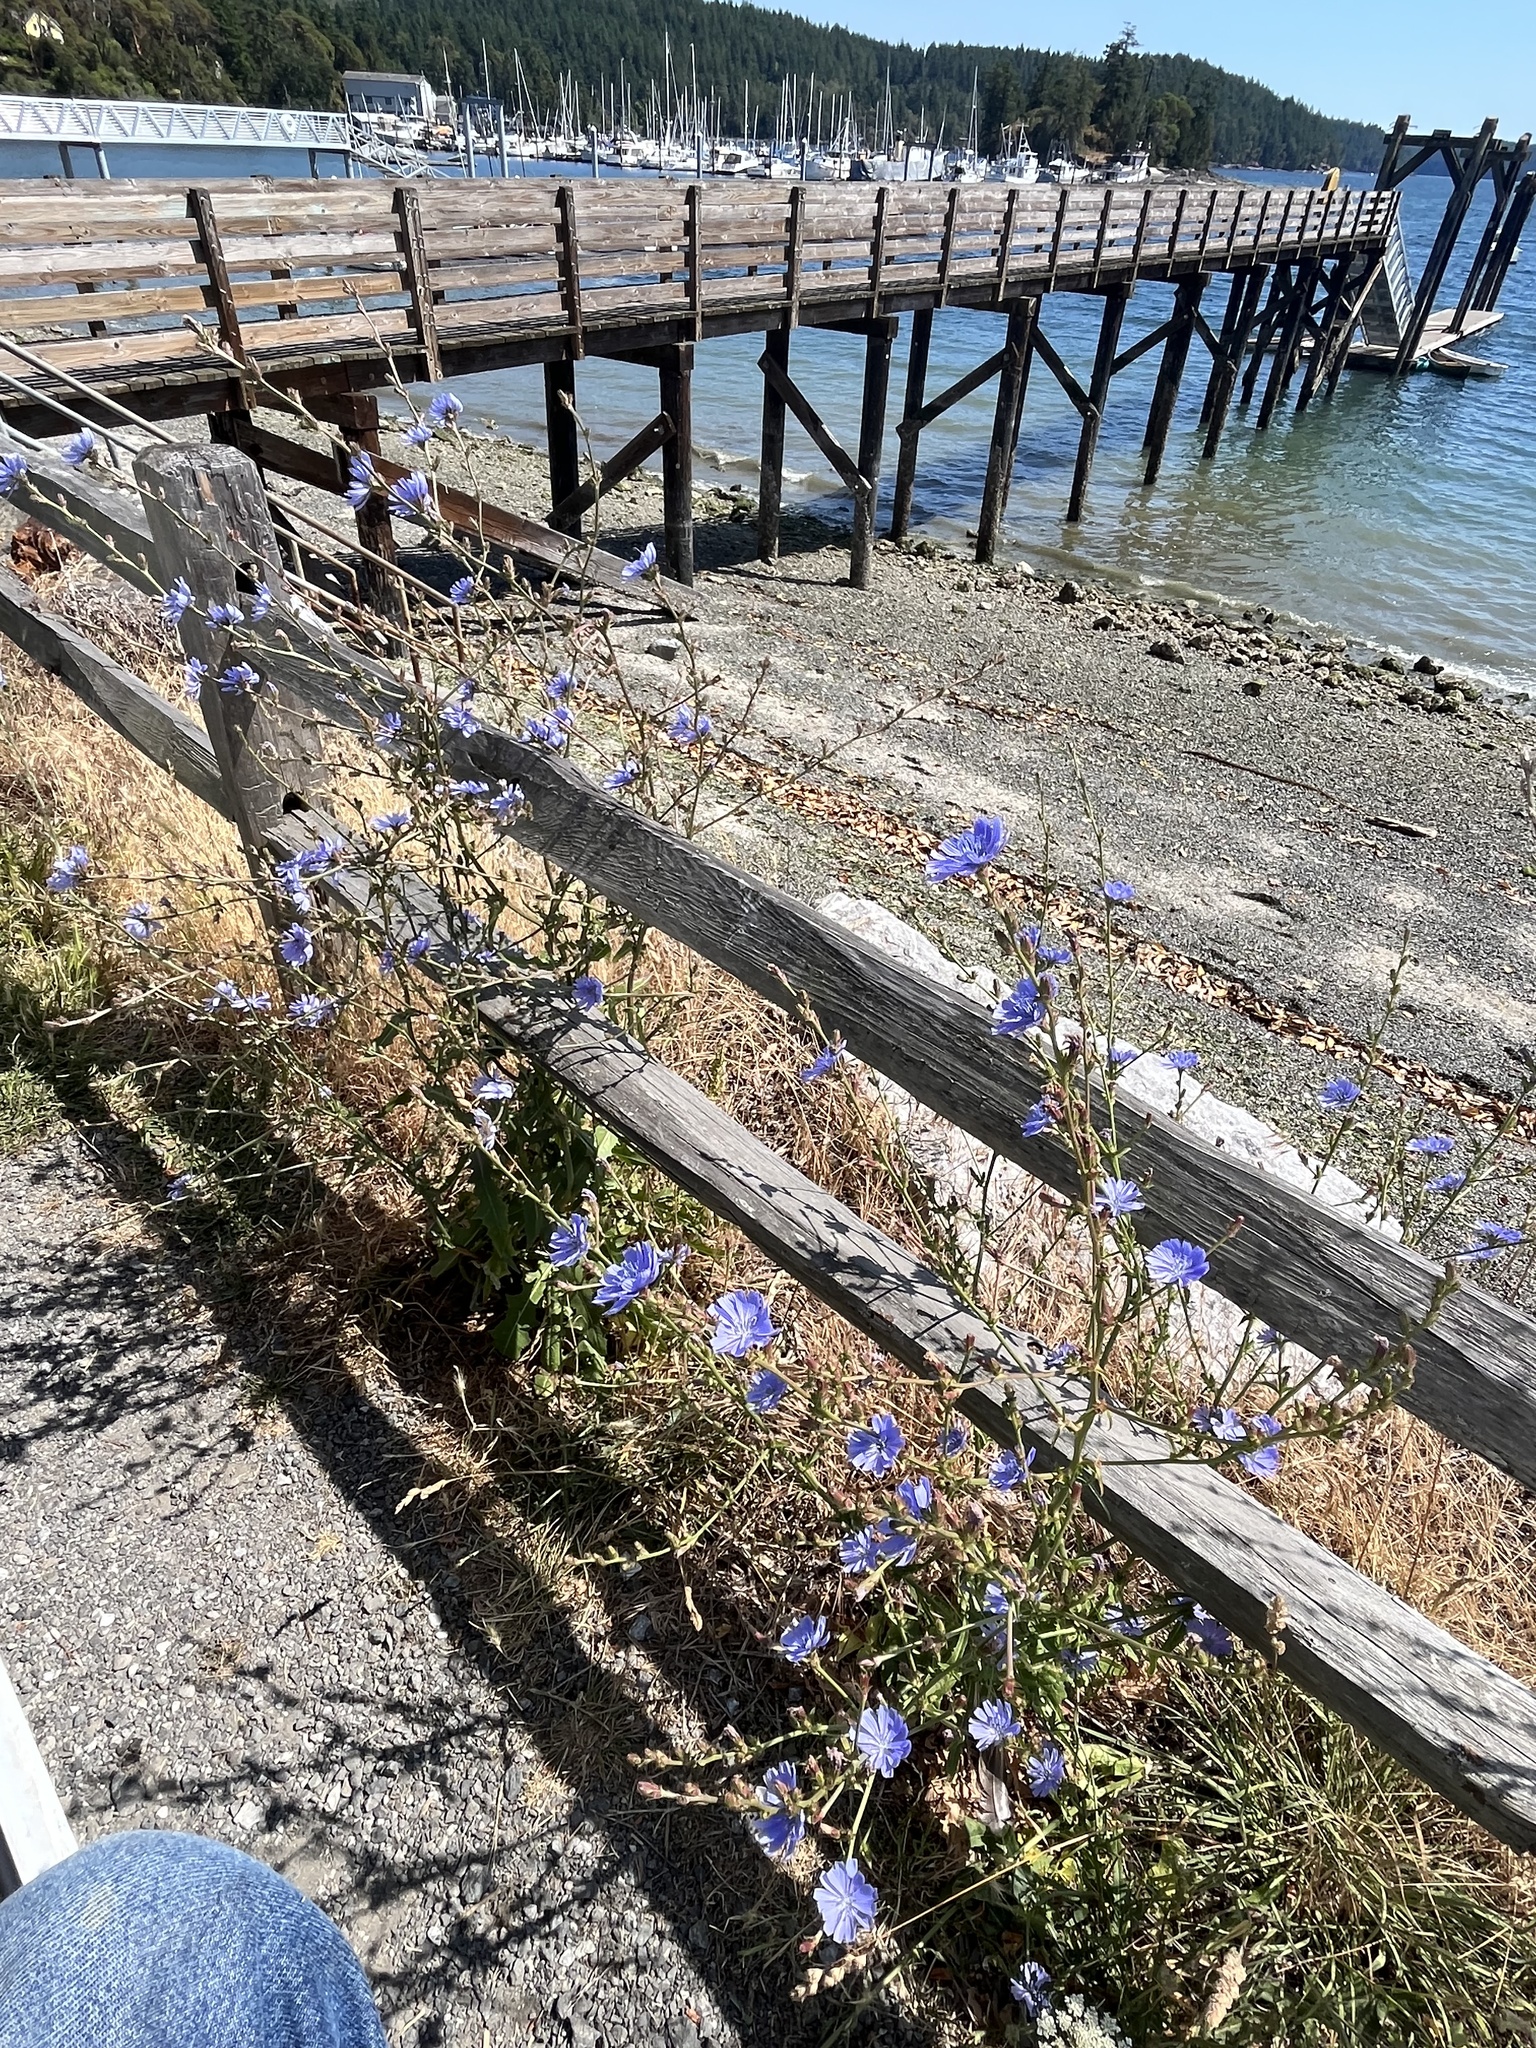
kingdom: Plantae
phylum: Tracheophyta
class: Magnoliopsida
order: Asterales
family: Asteraceae
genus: Cichorium
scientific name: Cichorium intybus
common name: Chicory
